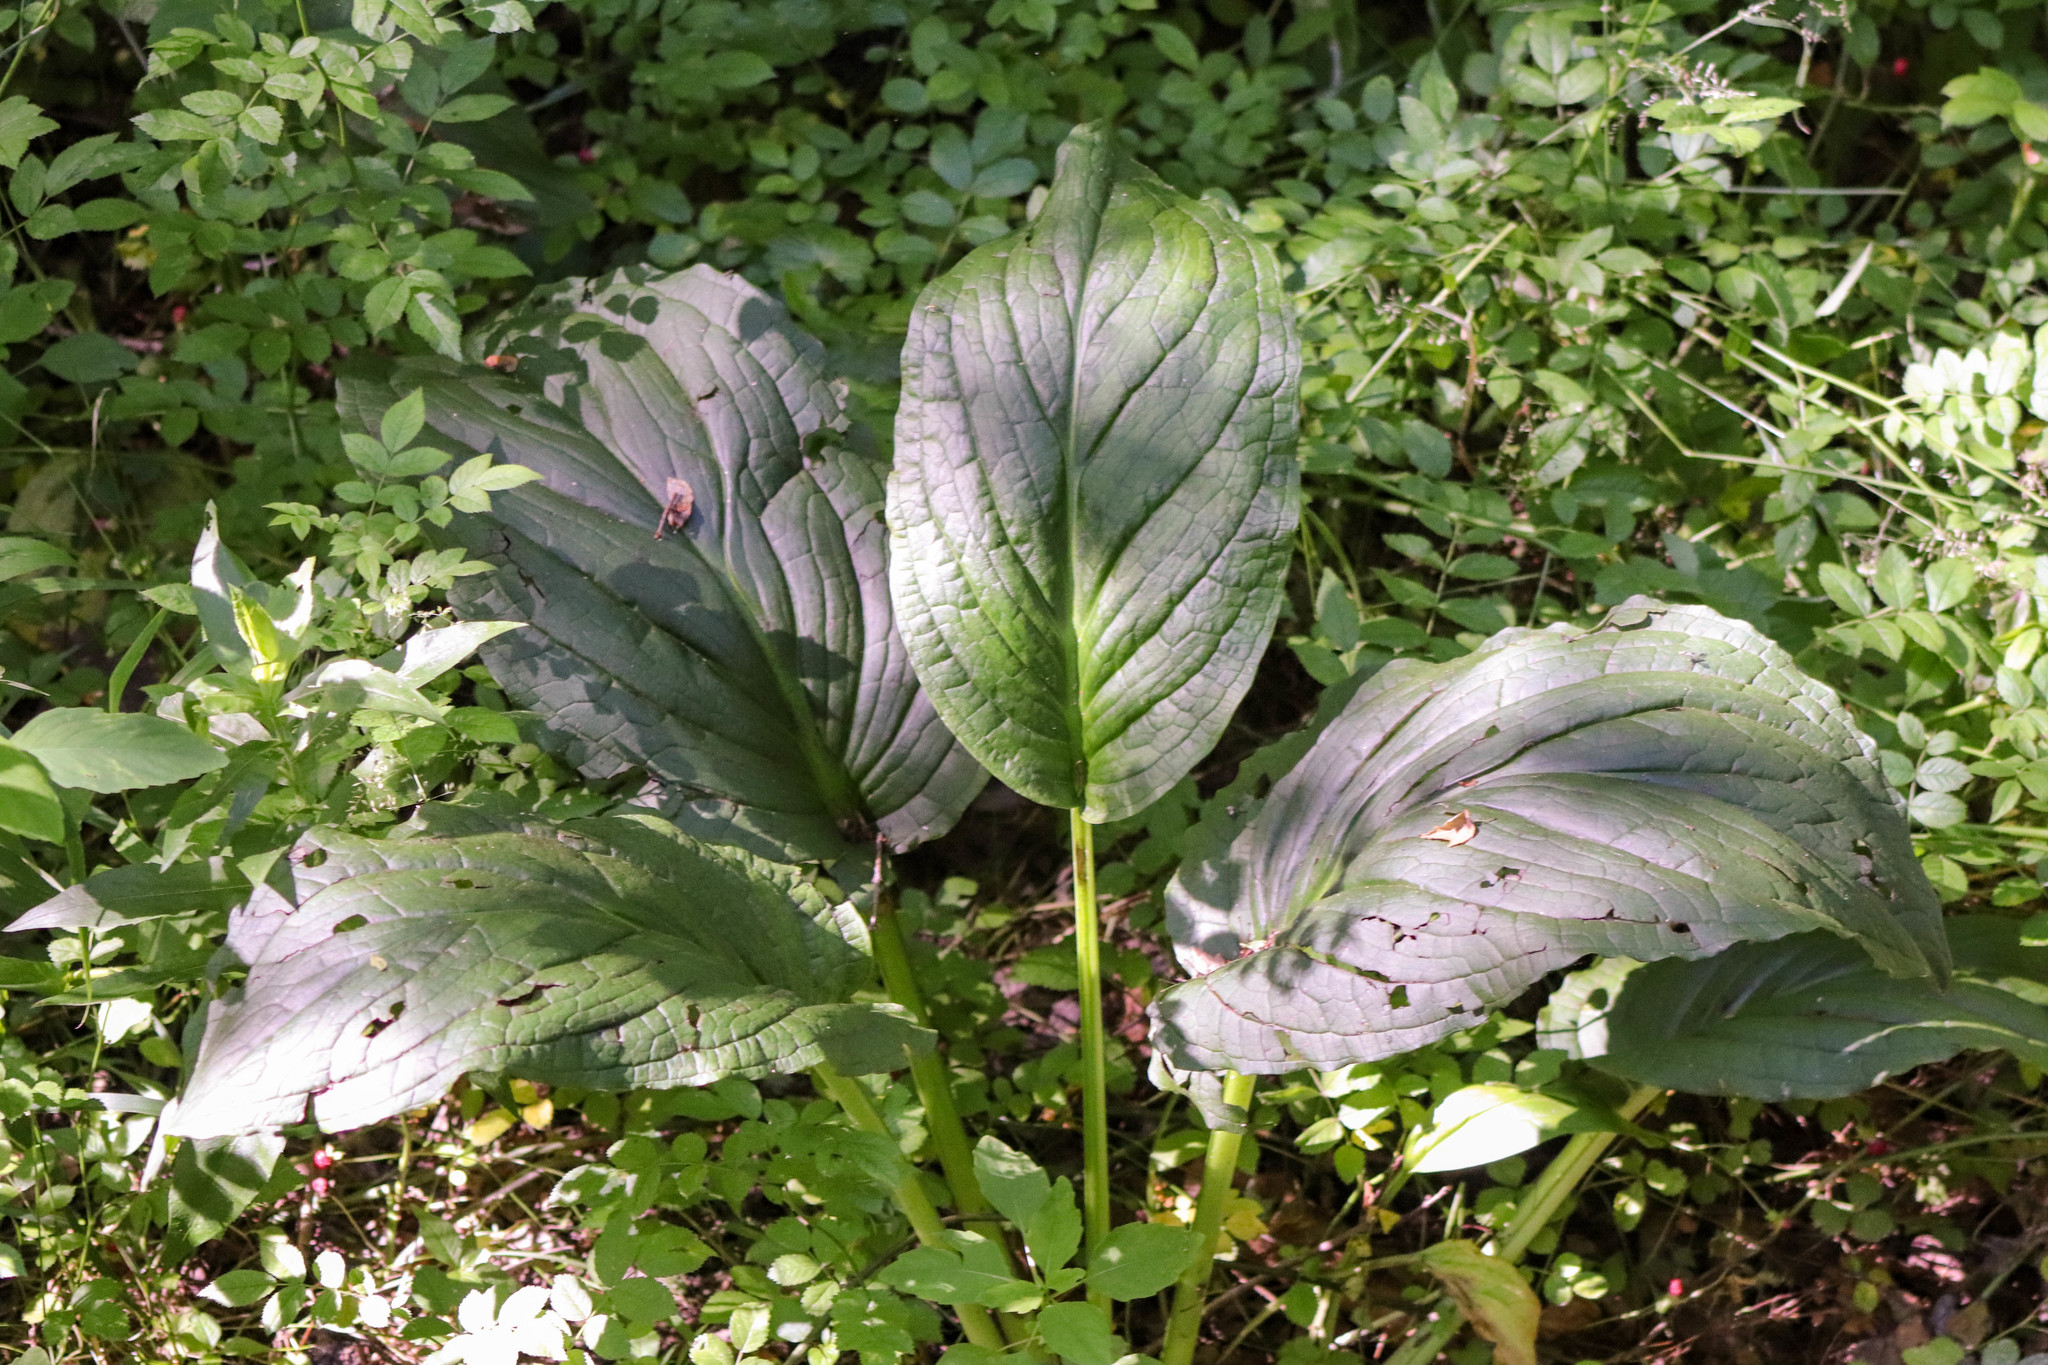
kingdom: Plantae
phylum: Tracheophyta
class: Liliopsida
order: Alismatales
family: Araceae
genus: Symplocarpus
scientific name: Symplocarpus foetidus
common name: Eastern skunk cabbage
